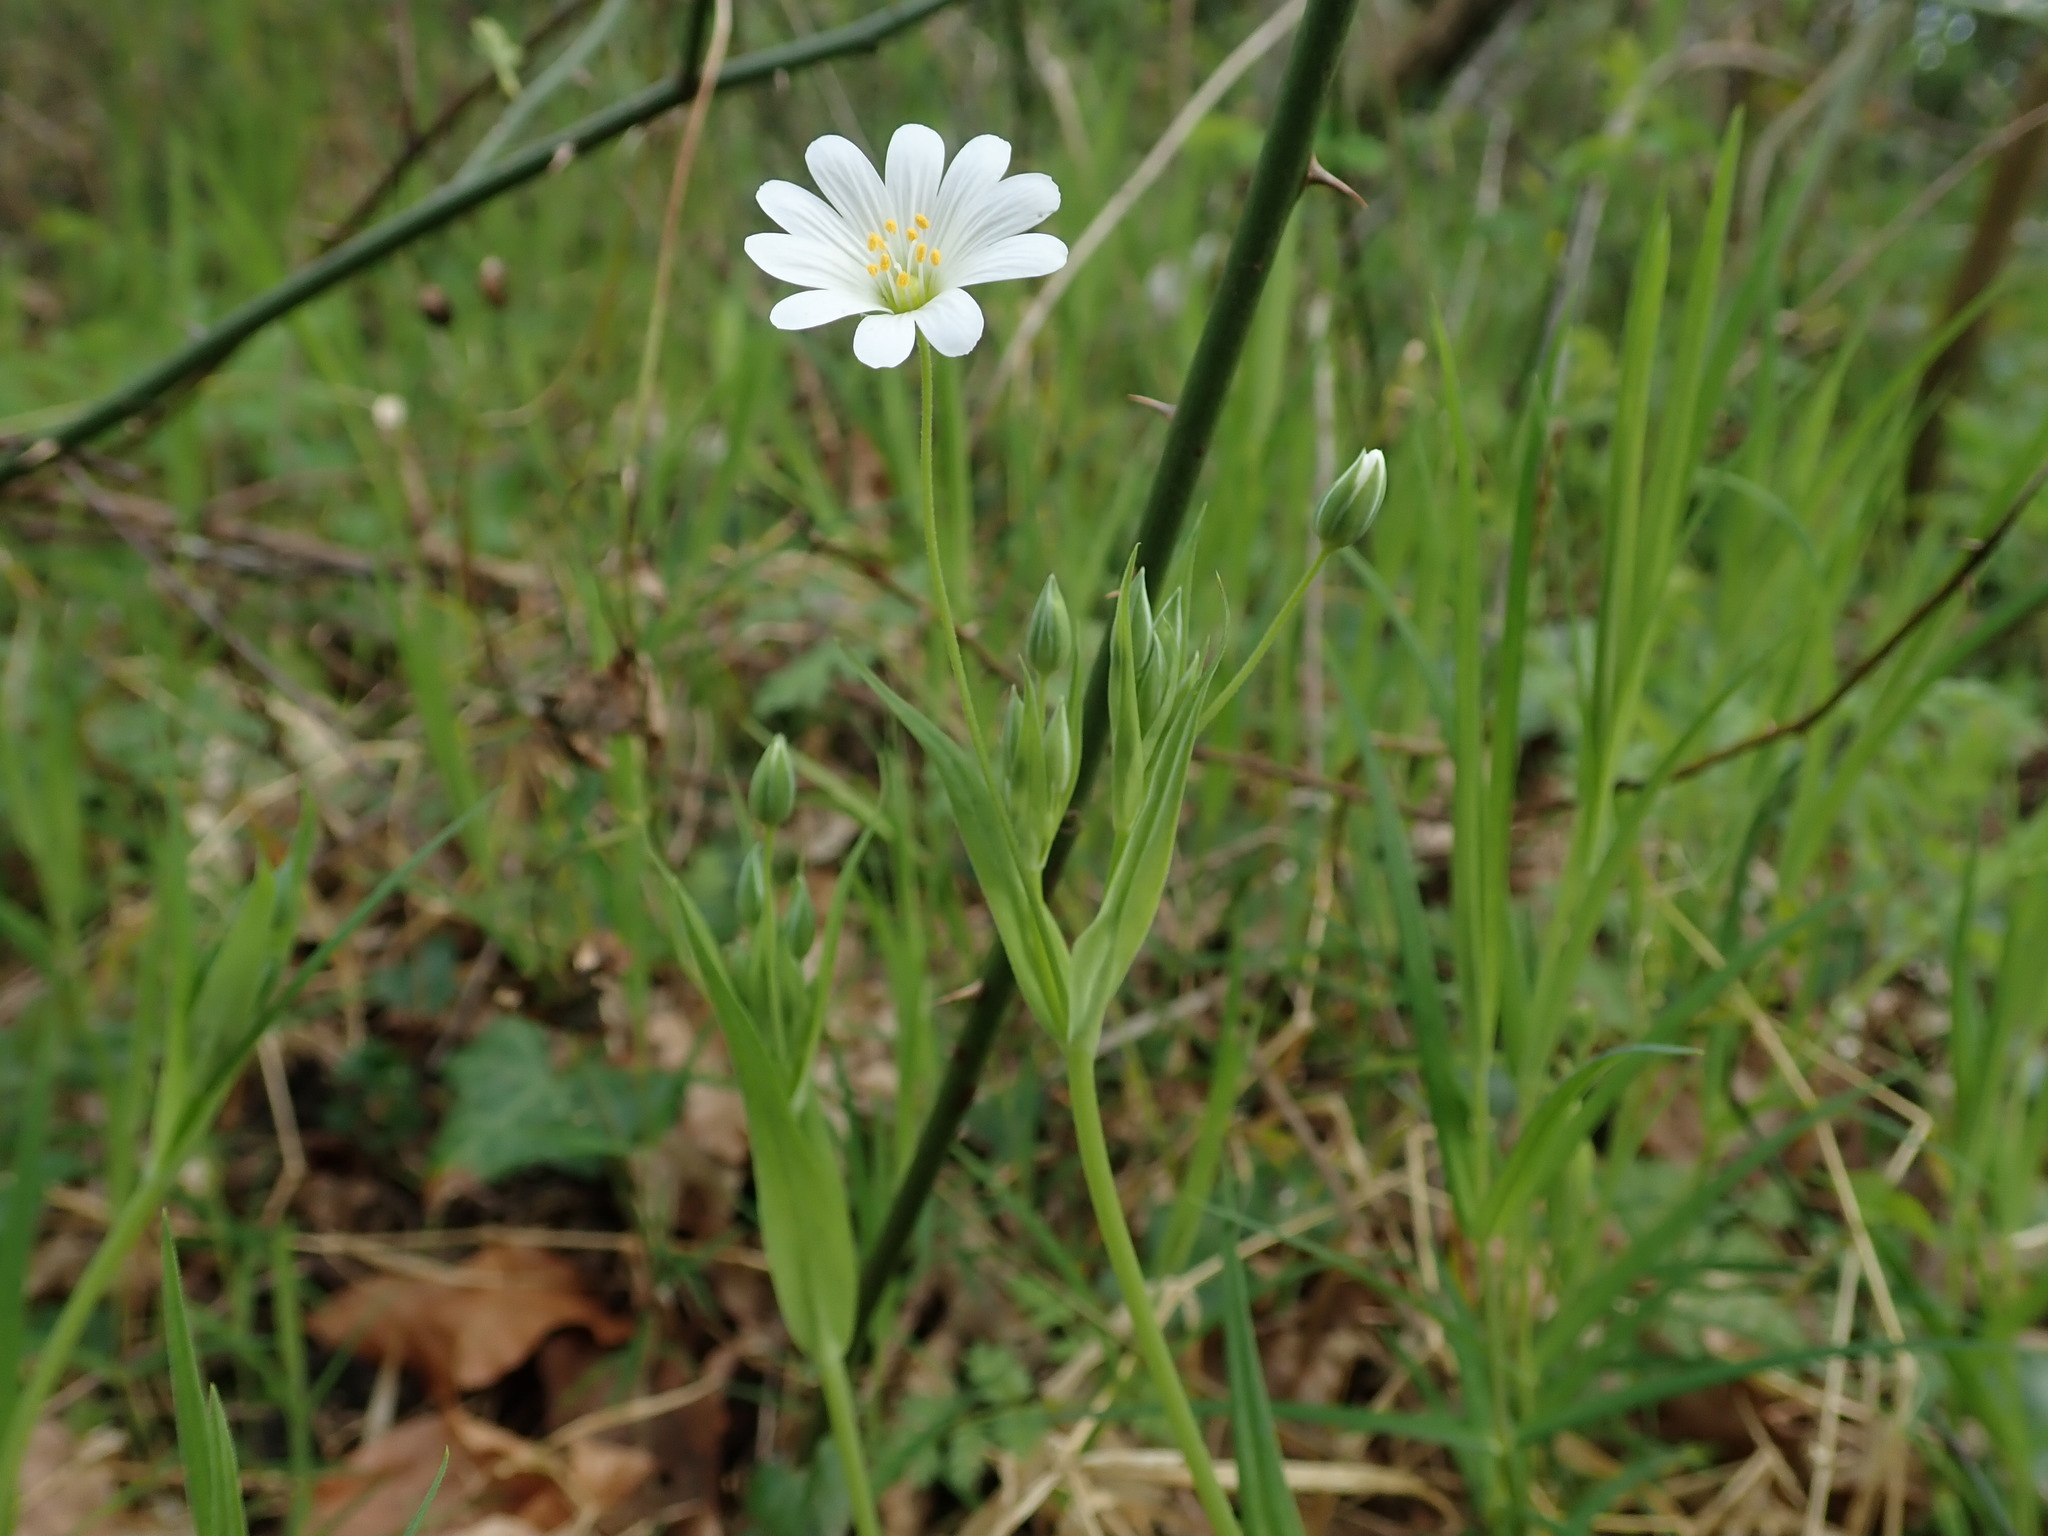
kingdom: Plantae
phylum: Tracheophyta
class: Magnoliopsida
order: Caryophyllales
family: Caryophyllaceae
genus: Rabelera
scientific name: Rabelera holostea
